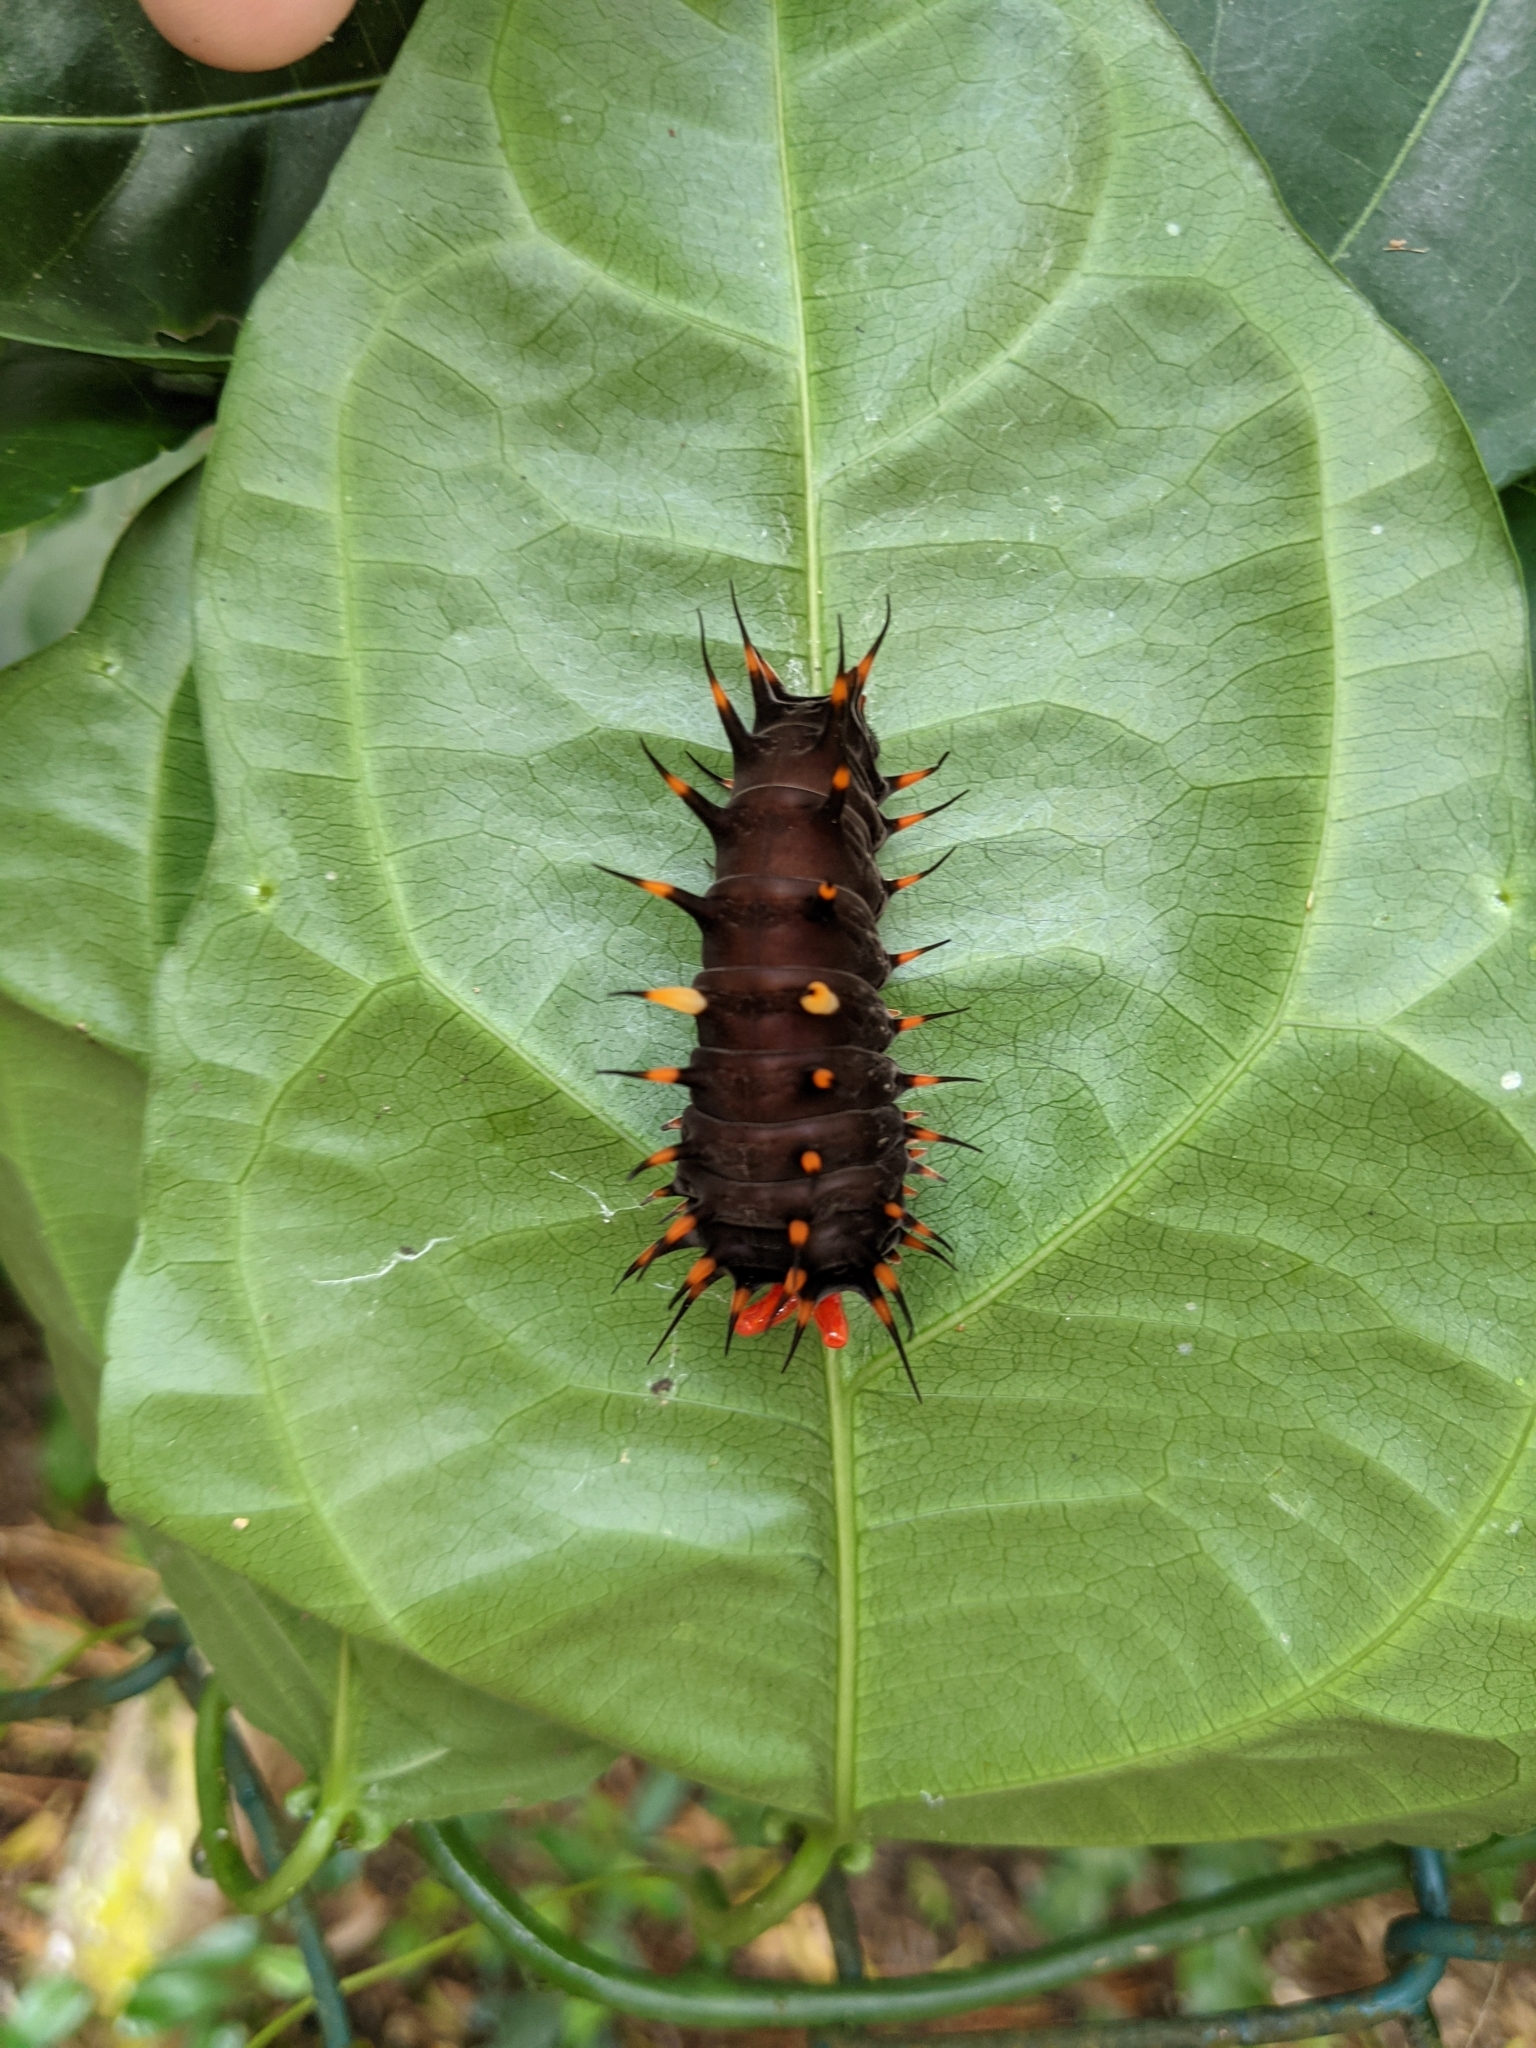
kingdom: Animalia
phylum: Arthropoda
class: Insecta
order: Lepidoptera
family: Papilionidae
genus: Ornithoptera
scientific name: Ornithoptera euphorion
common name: Cairns birdwing
